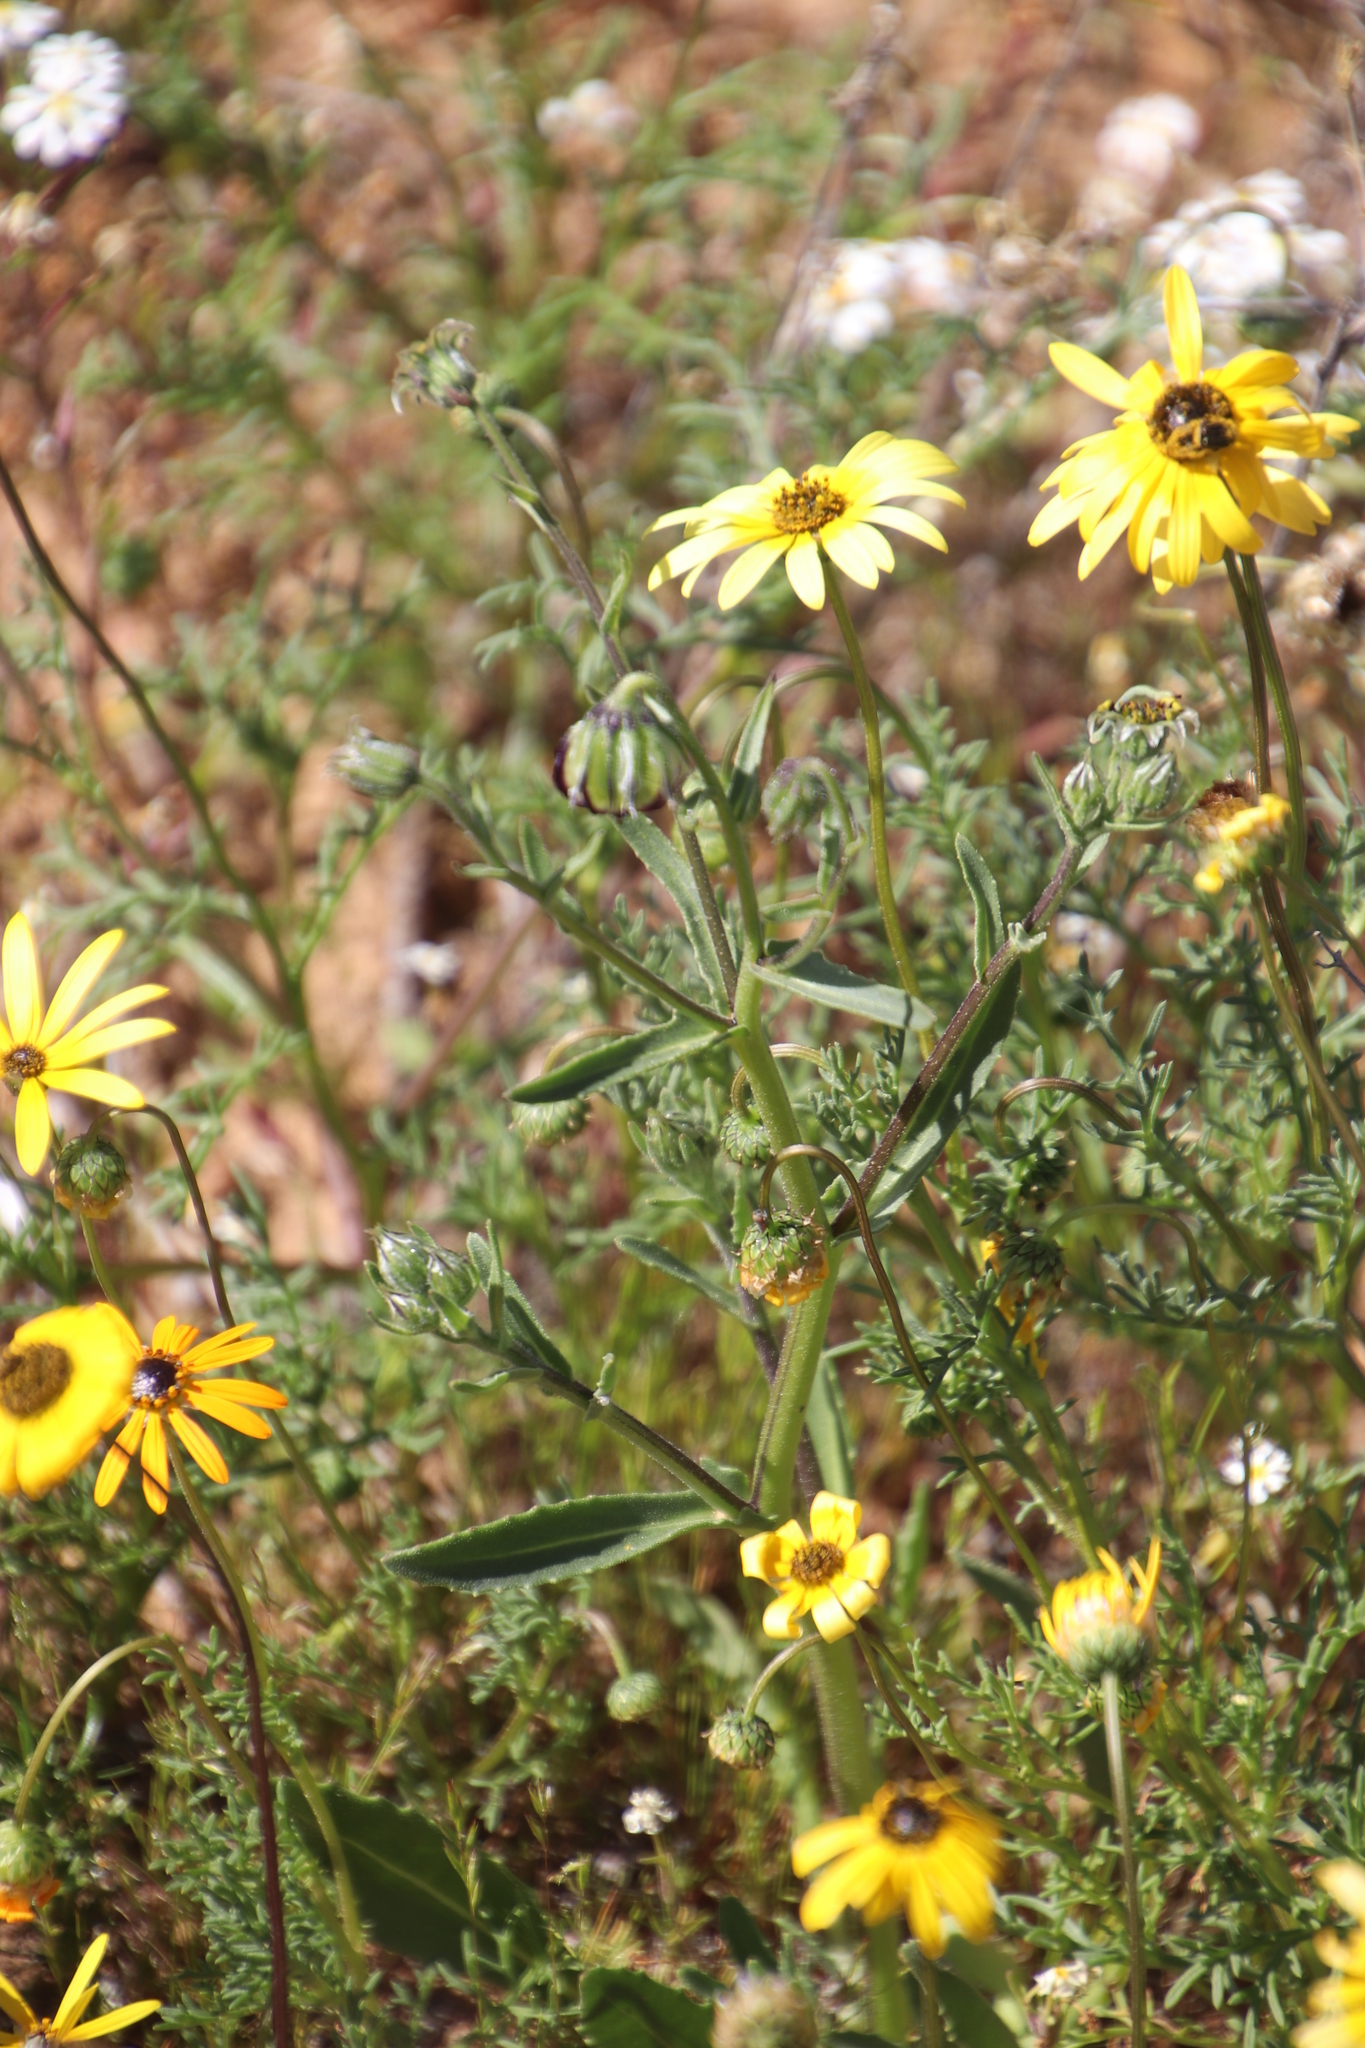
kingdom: Plantae
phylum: Tracheophyta
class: Magnoliopsida
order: Asterales
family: Asteraceae
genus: Osteospermum
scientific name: Osteospermum monstrosum
